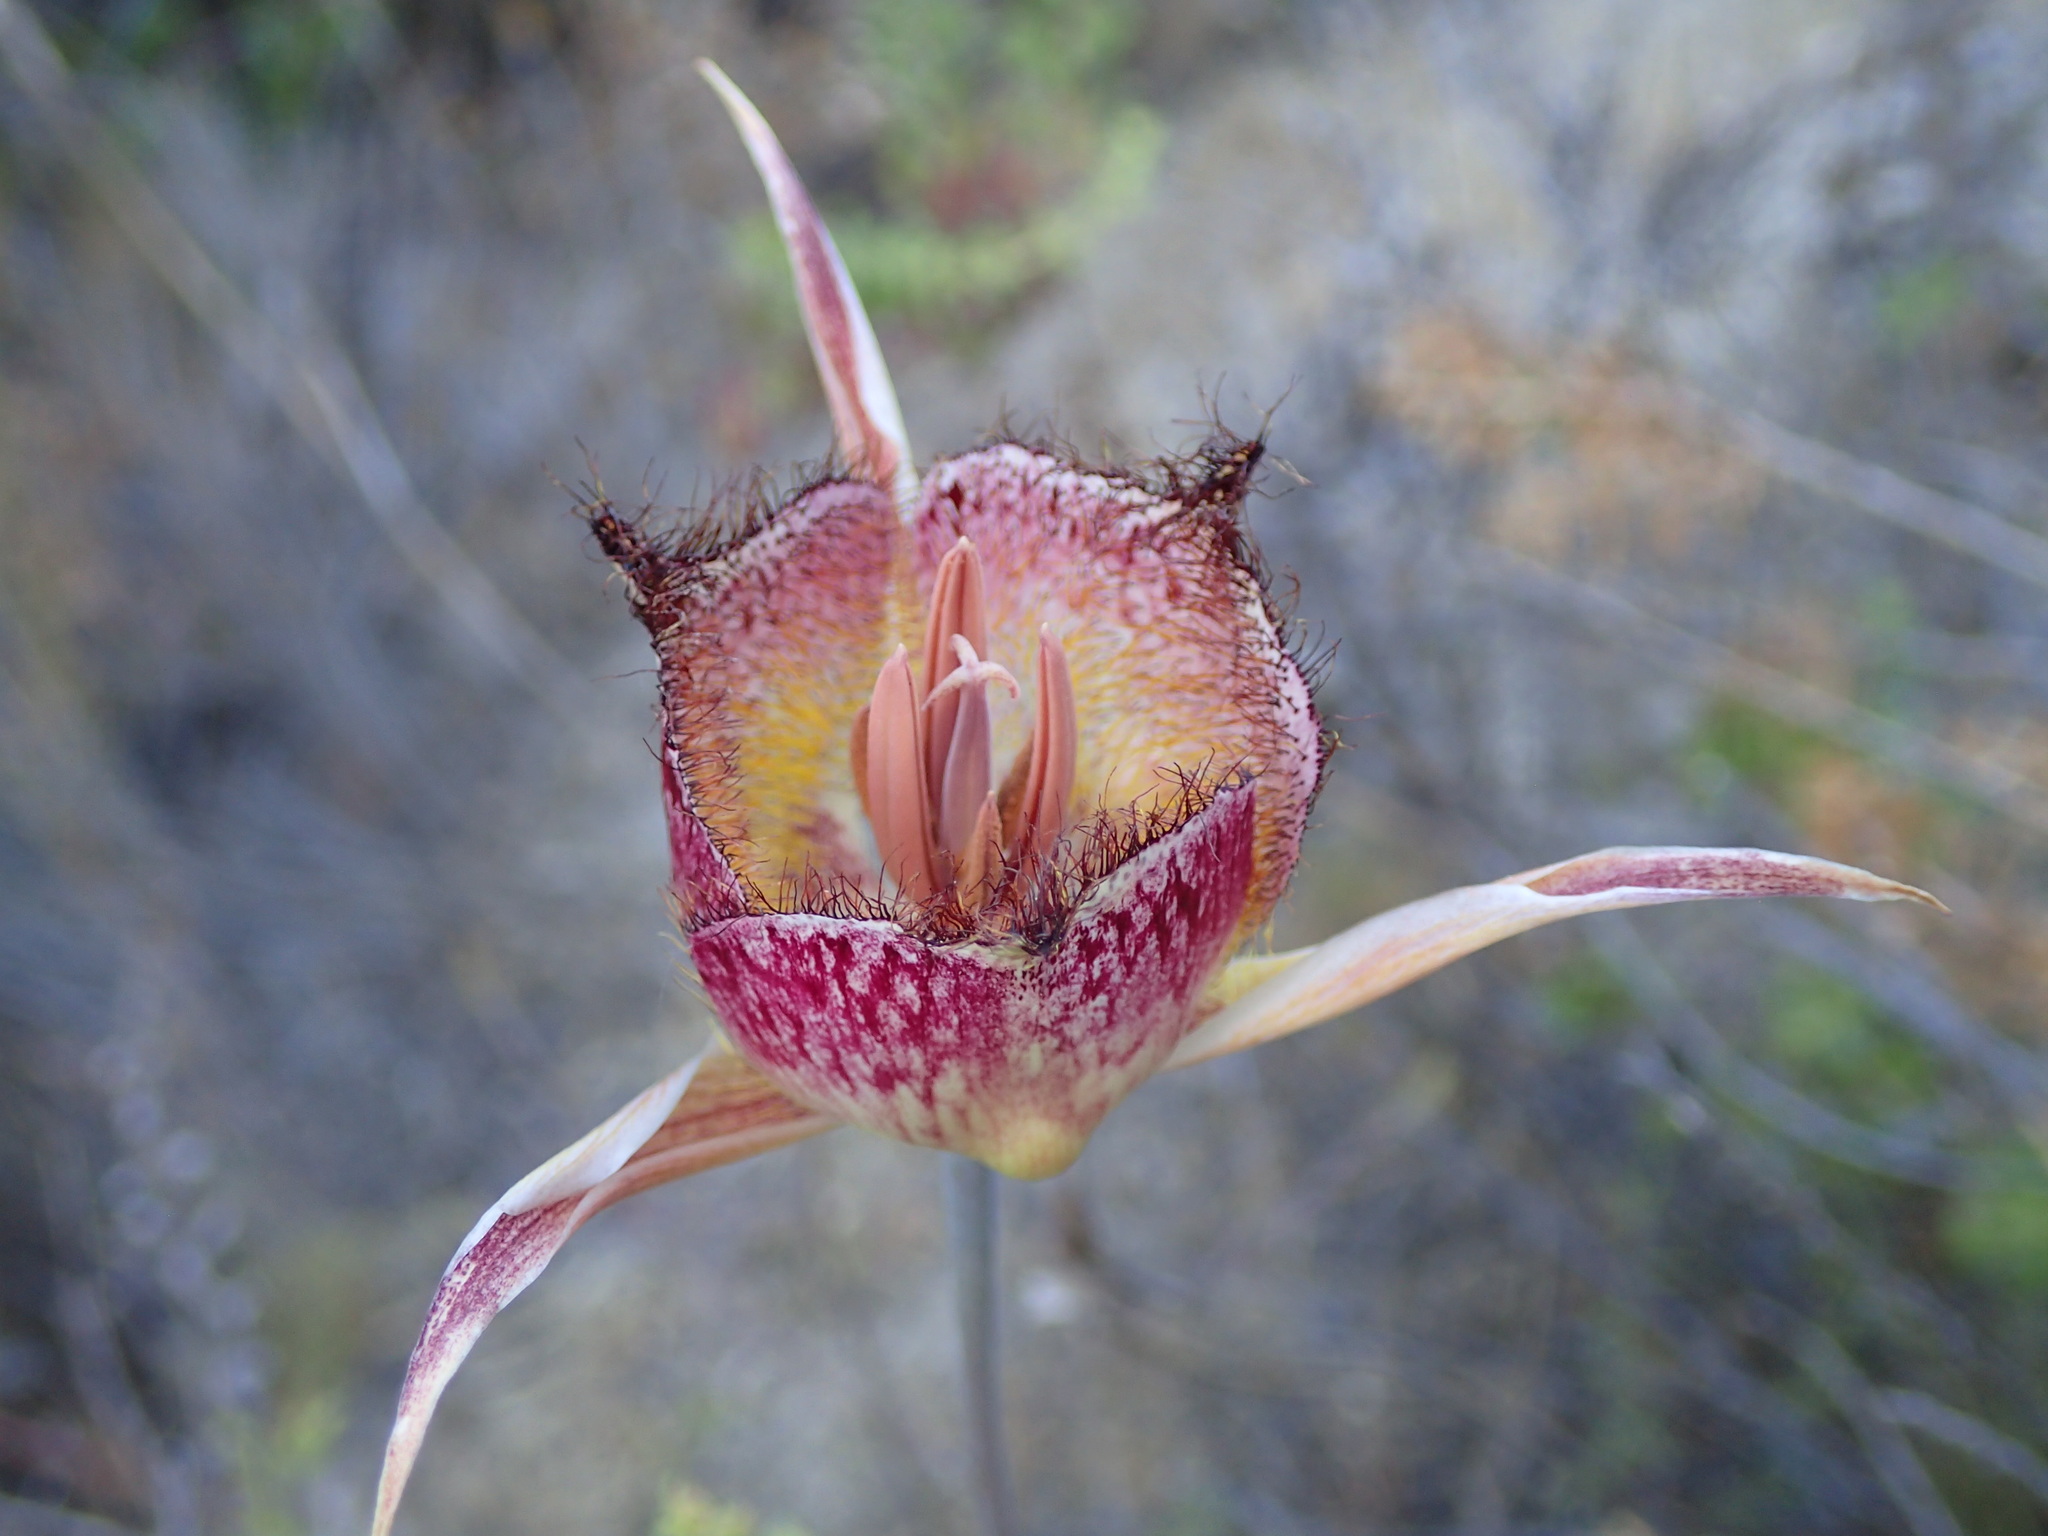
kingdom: Plantae
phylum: Tracheophyta
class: Liliopsida
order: Liliales
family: Liliaceae
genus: Calochortus
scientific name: Calochortus fimbriatus
